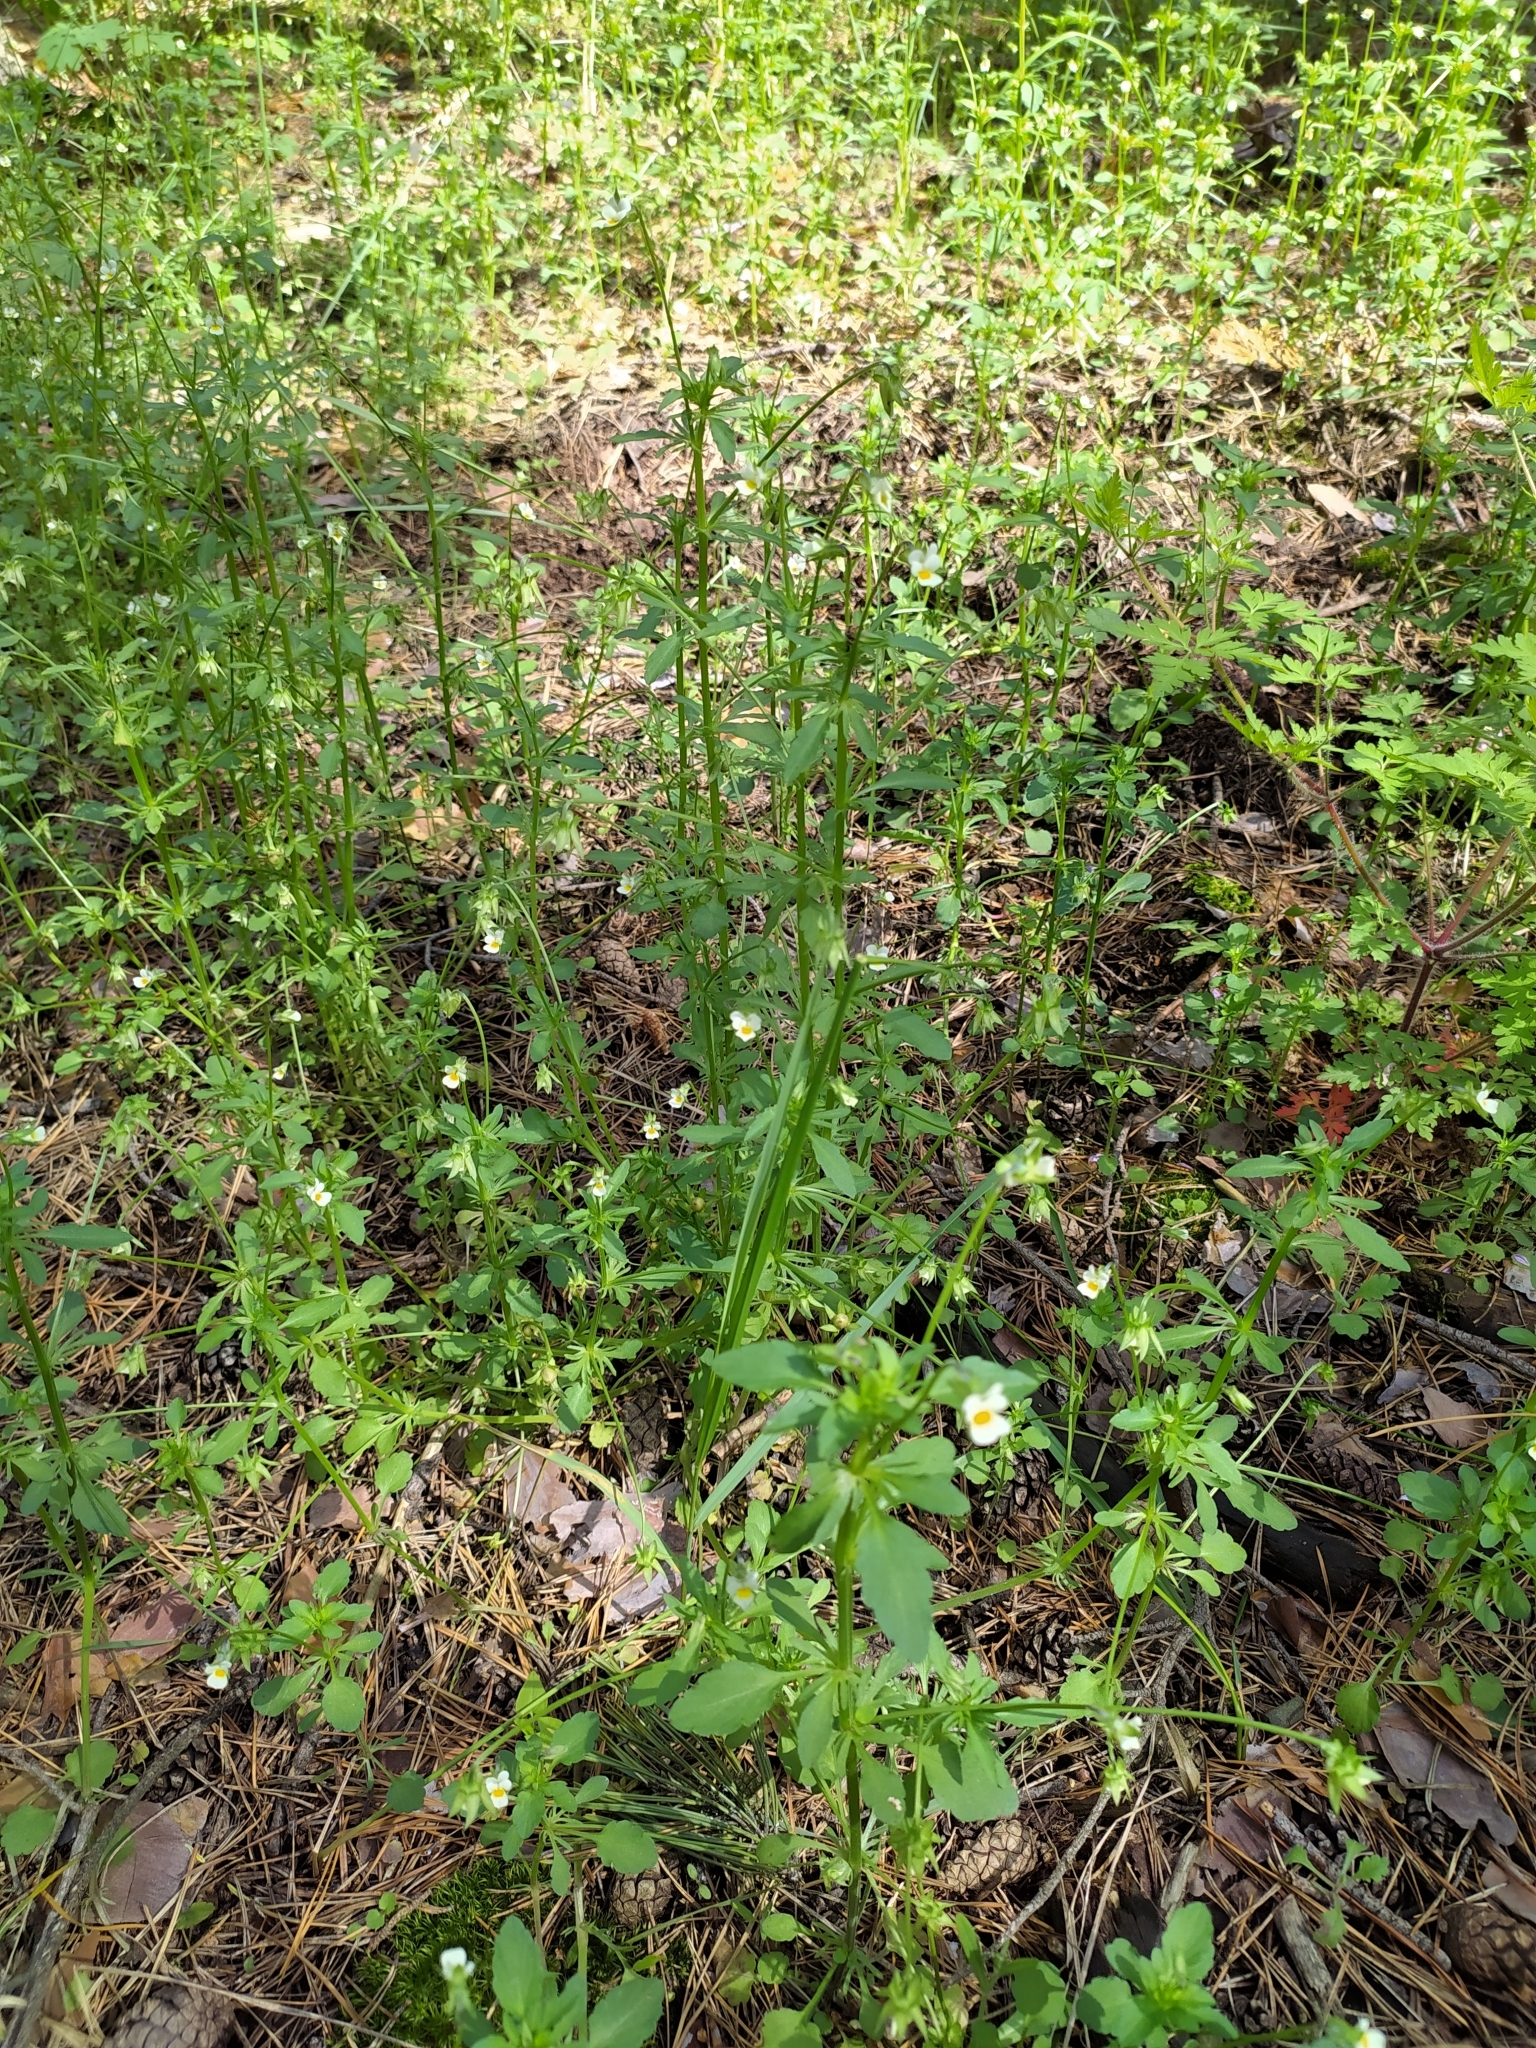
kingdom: Plantae
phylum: Tracheophyta
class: Magnoliopsida
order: Malpighiales
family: Violaceae
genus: Viola
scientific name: Viola arvensis
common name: Field pansy
